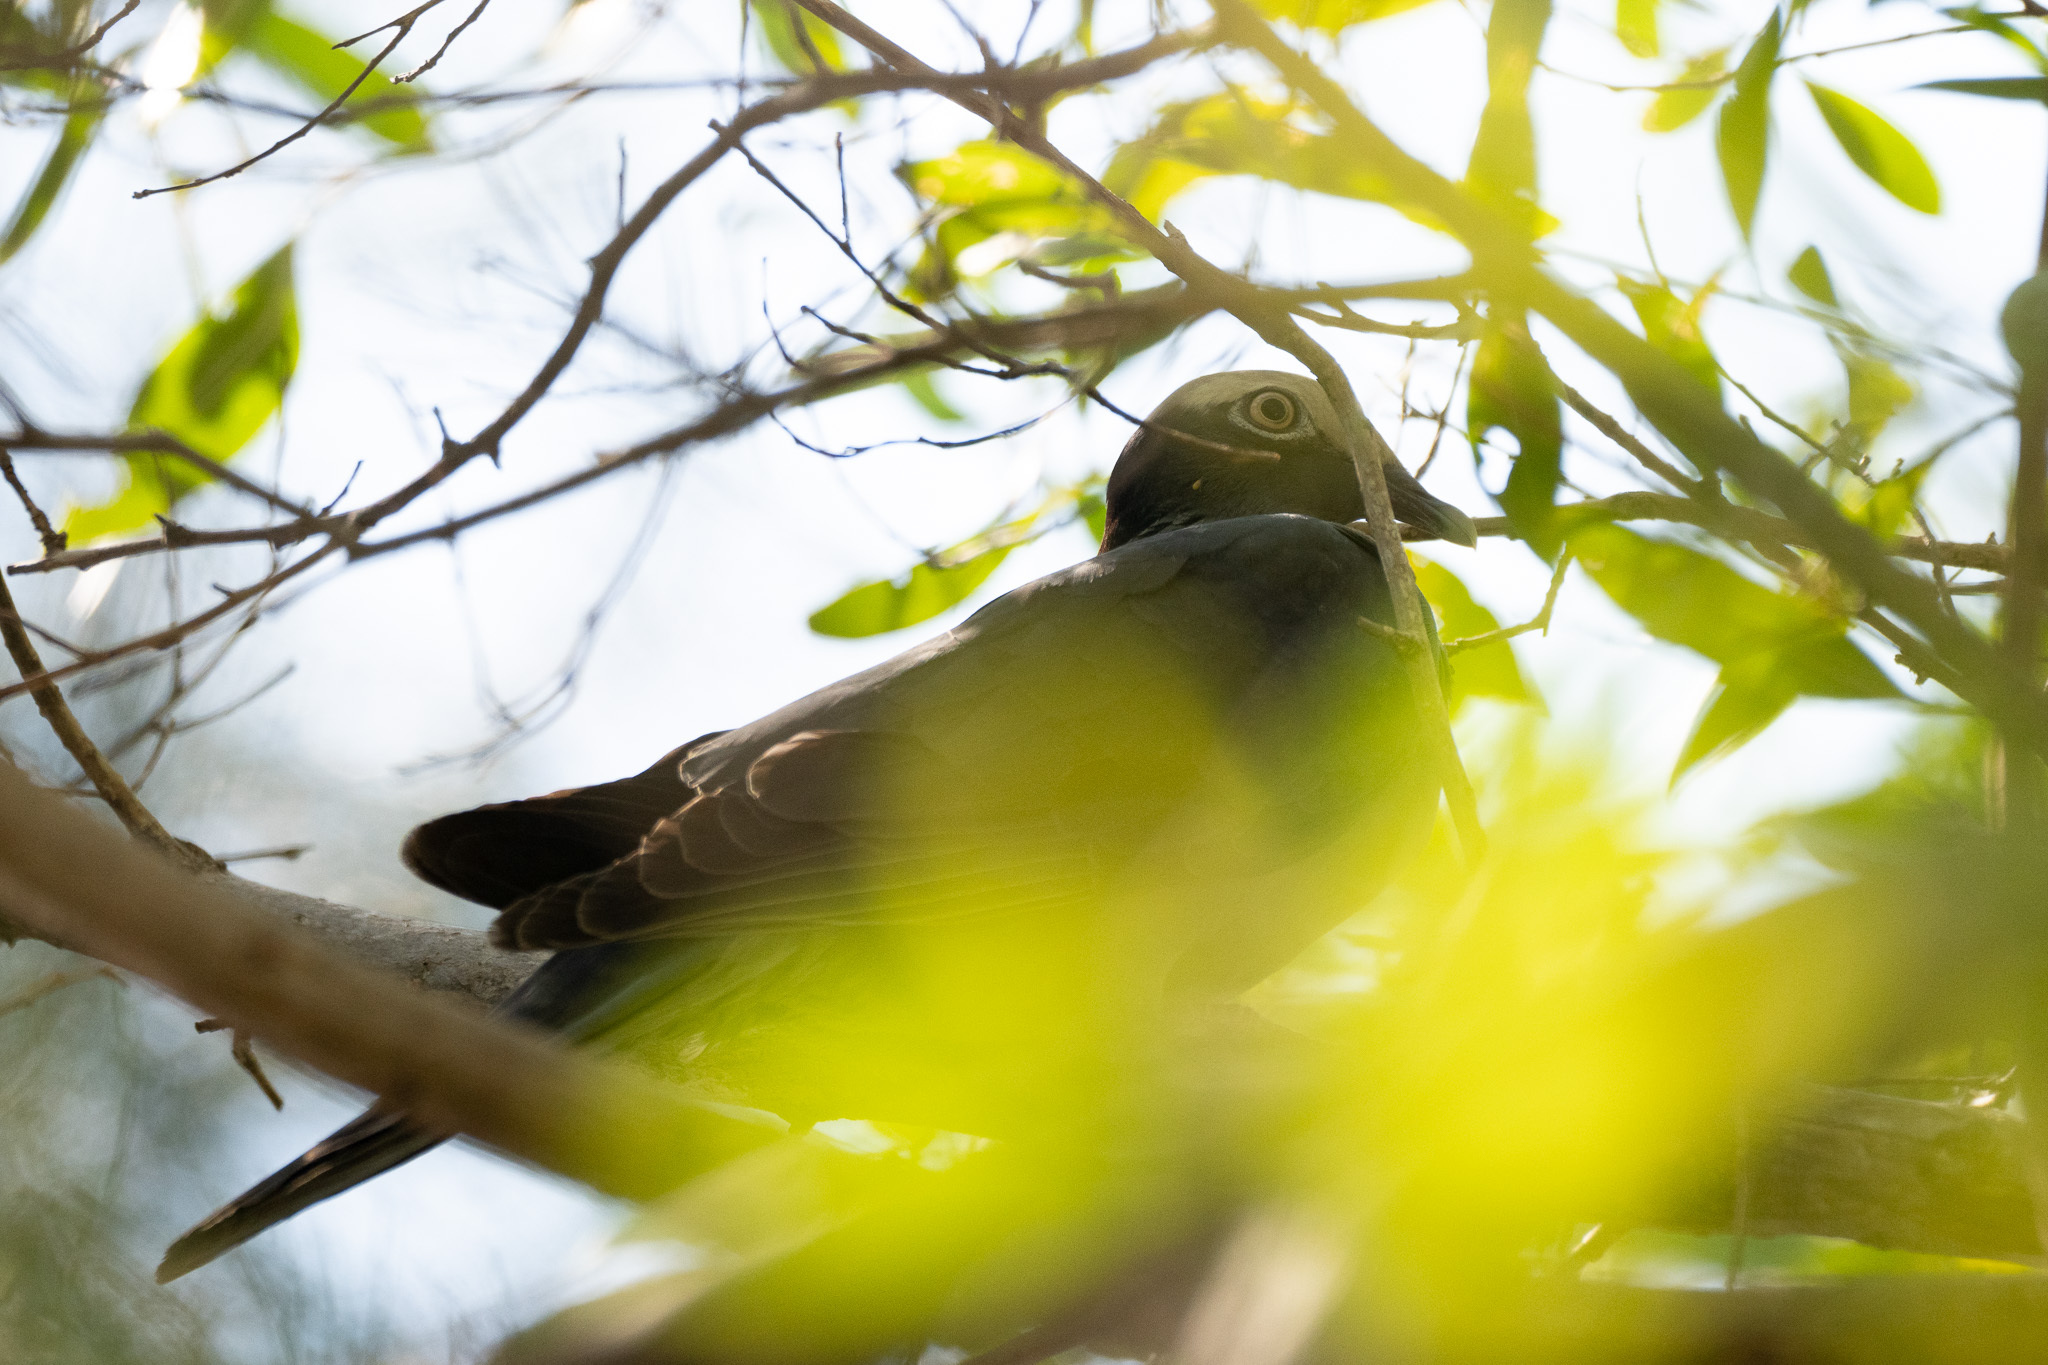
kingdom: Animalia
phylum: Chordata
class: Aves
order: Columbiformes
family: Columbidae
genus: Patagioenas
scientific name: Patagioenas leucocephala
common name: White-crowned pigeon
